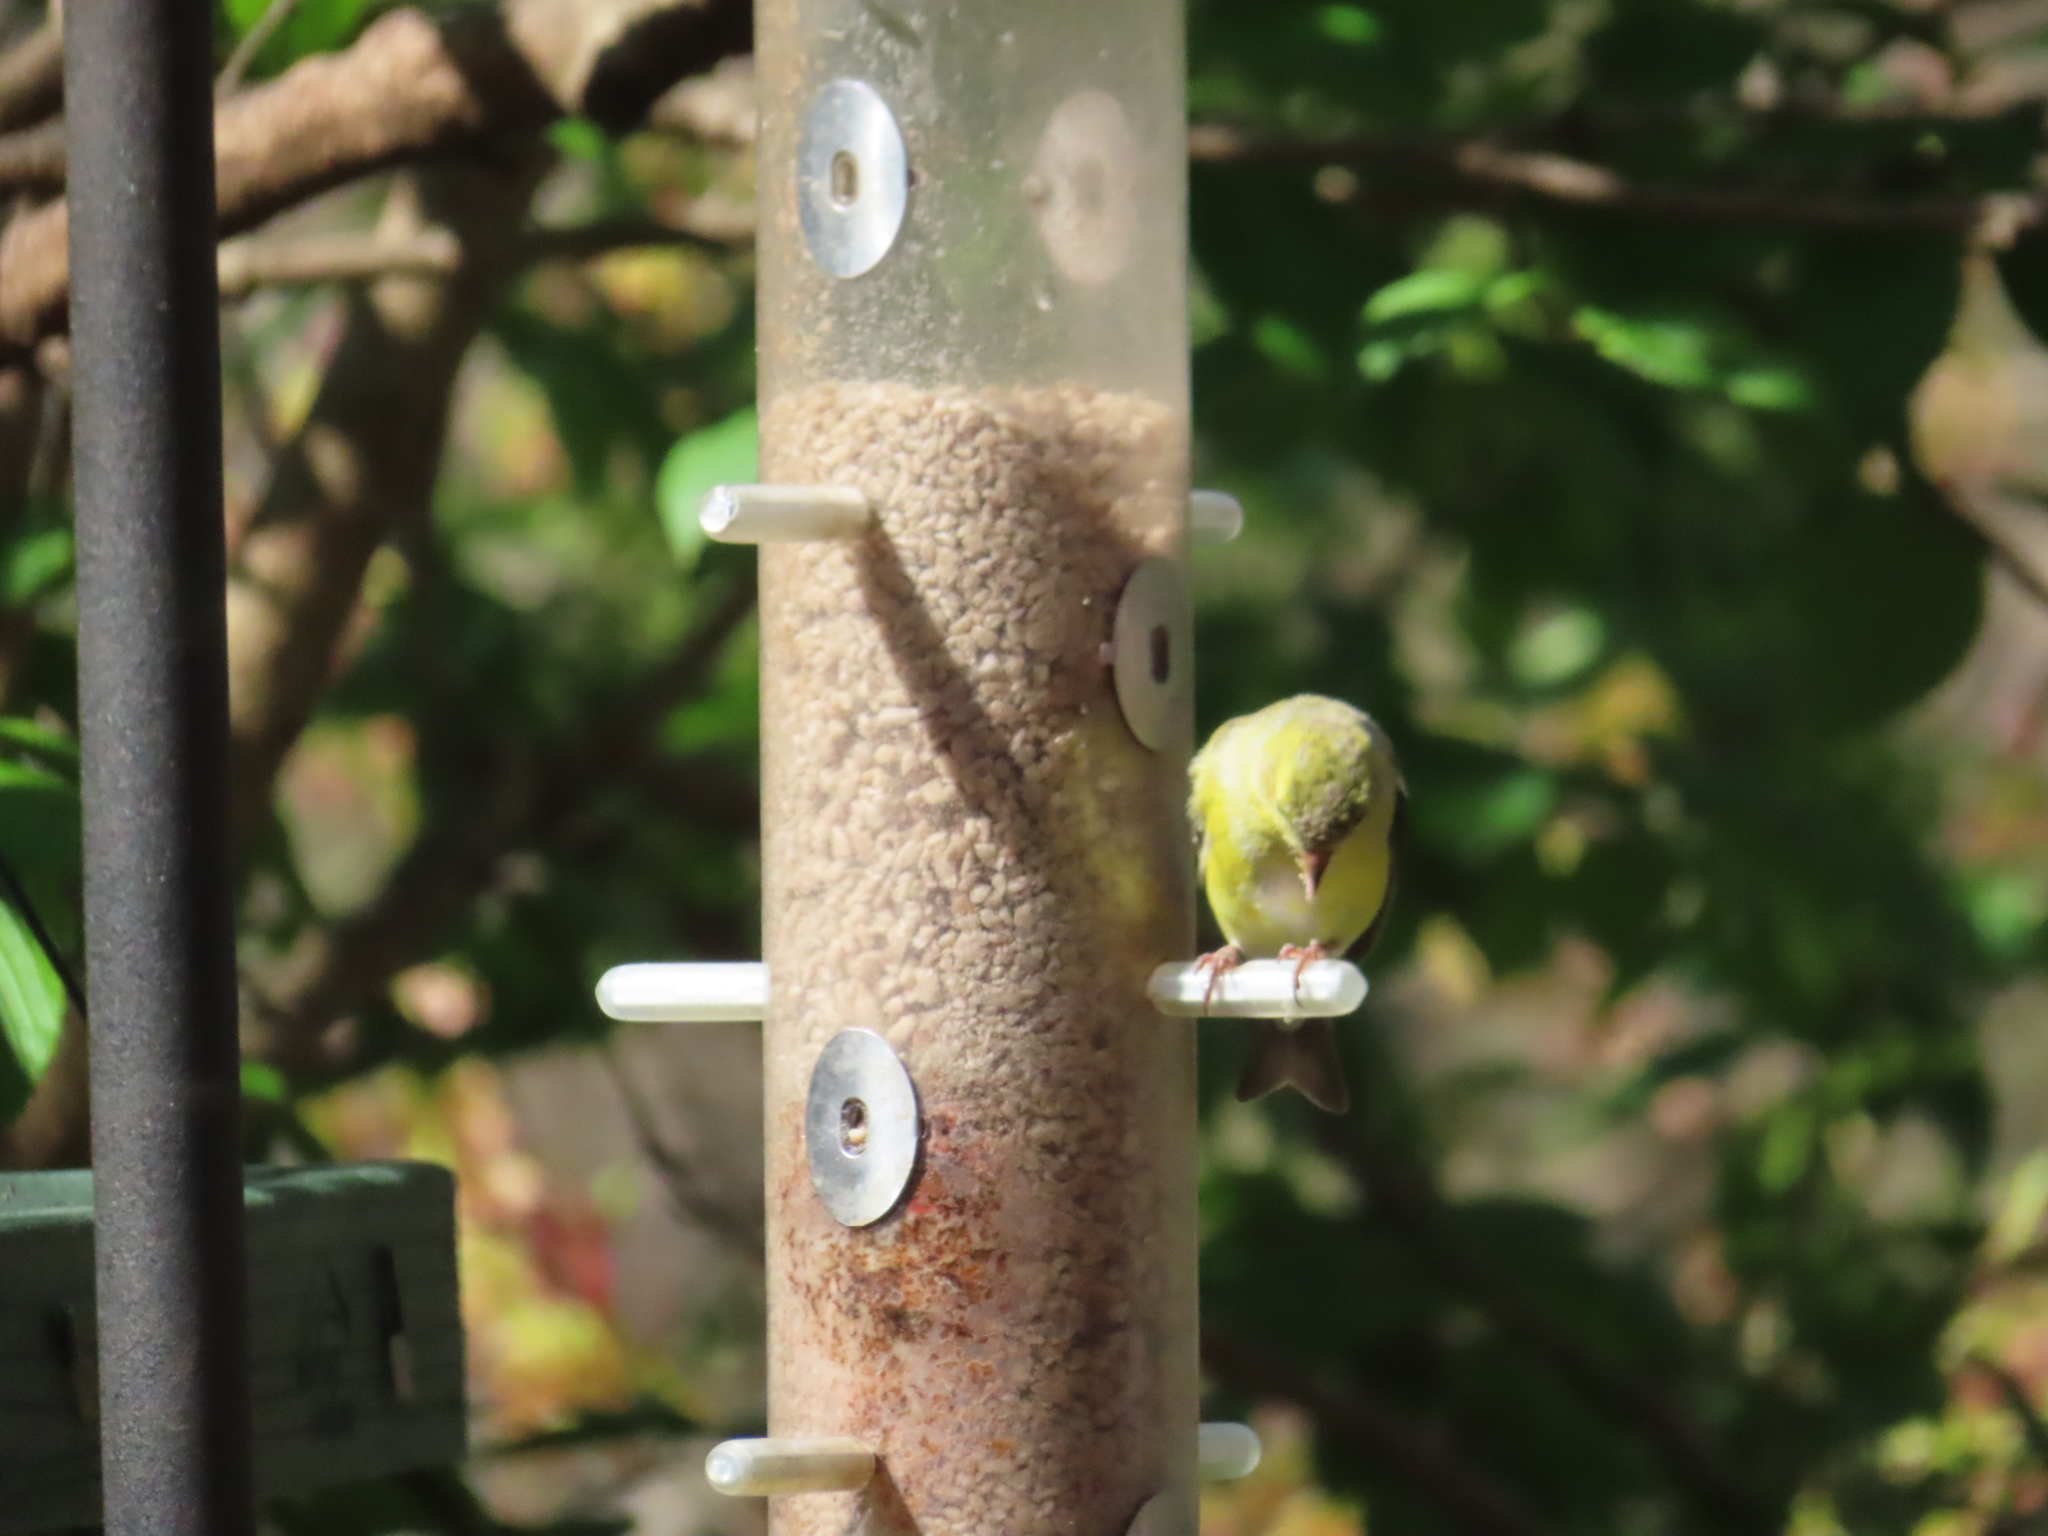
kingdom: Animalia
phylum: Chordata
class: Aves
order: Passeriformes
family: Fringillidae
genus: Spinus
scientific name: Spinus tristis
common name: American goldfinch
